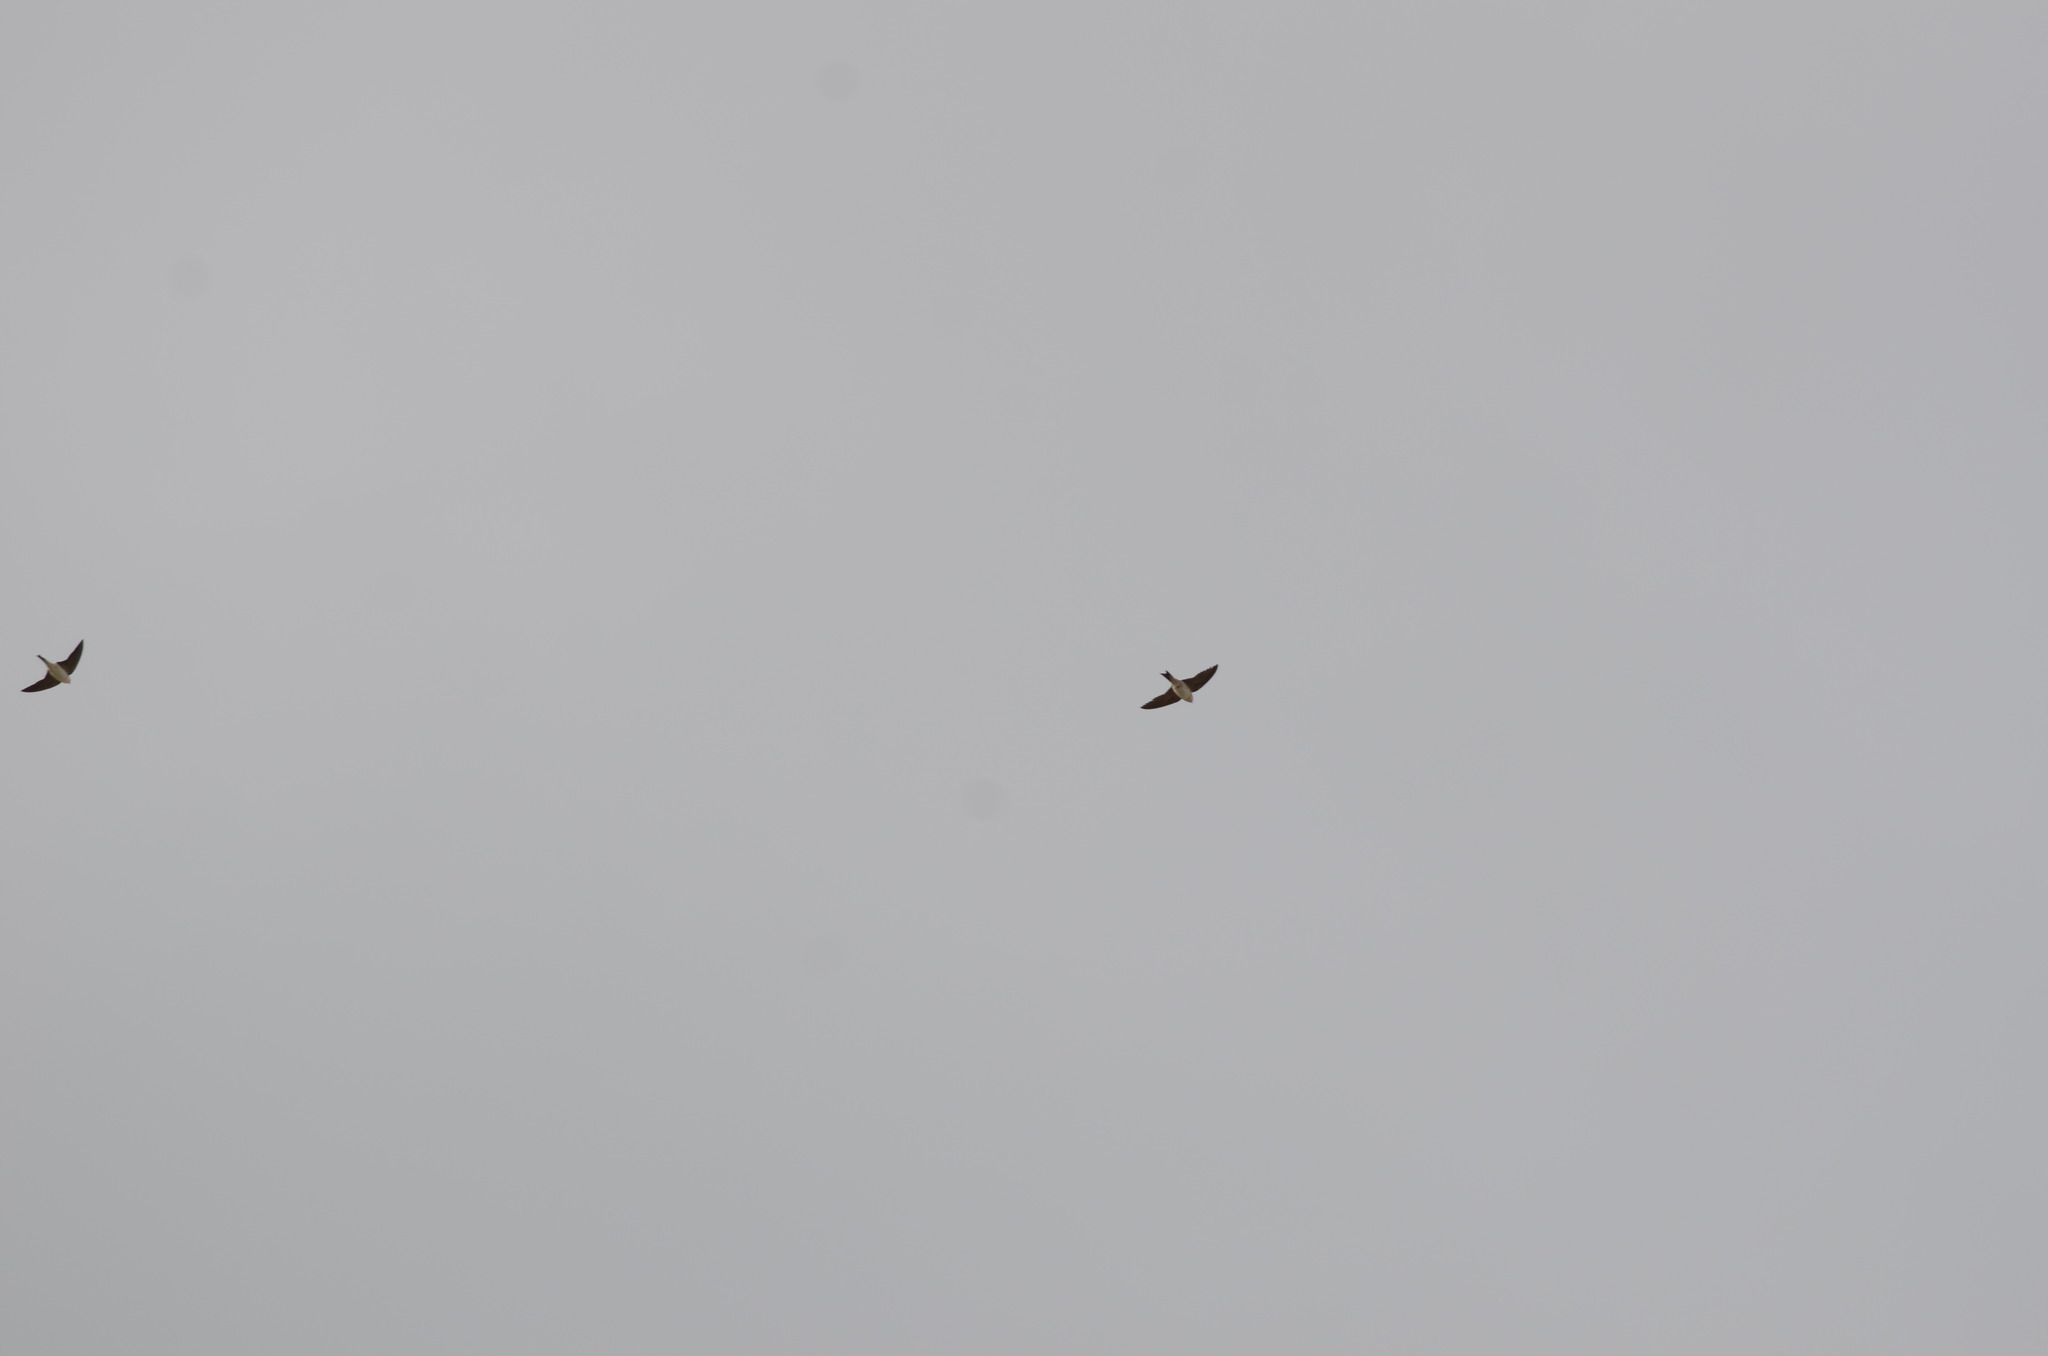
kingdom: Animalia
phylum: Chordata
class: Aves
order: Passeriformes
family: Hirundinidae
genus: Delichon
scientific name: Delichon urbicum
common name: Common house martin
